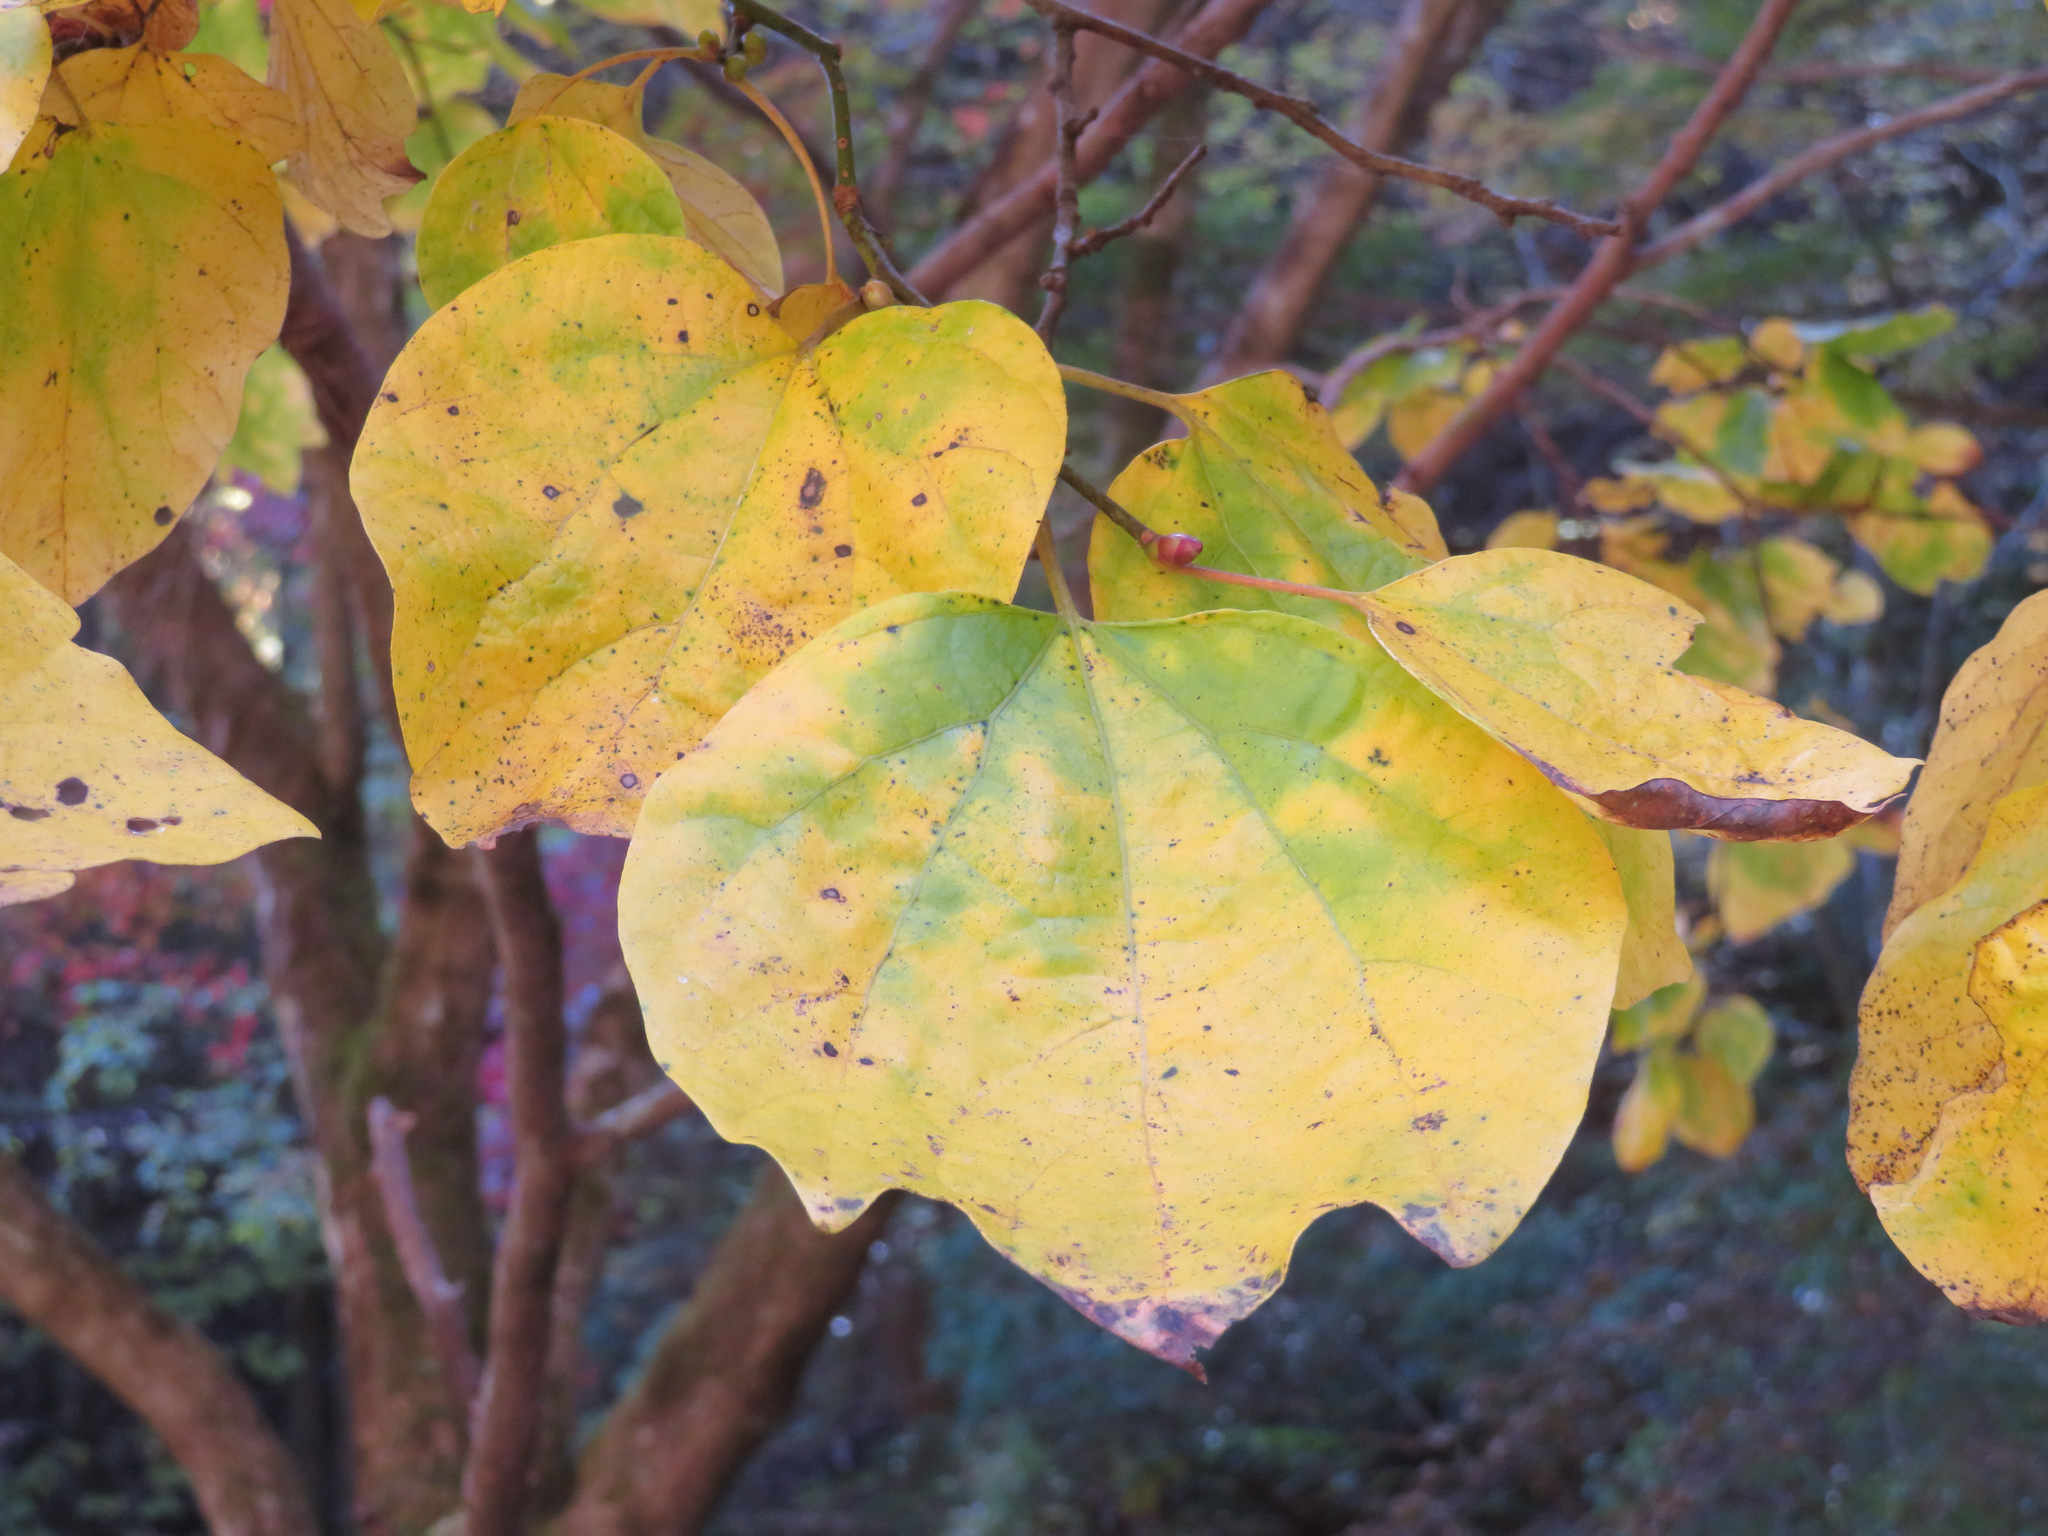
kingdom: Plantae
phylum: Tracheophyta
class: Magnoliopsida
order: Laurales
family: Lauraceae
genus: Lindera
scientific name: Lindera obtusiloba
